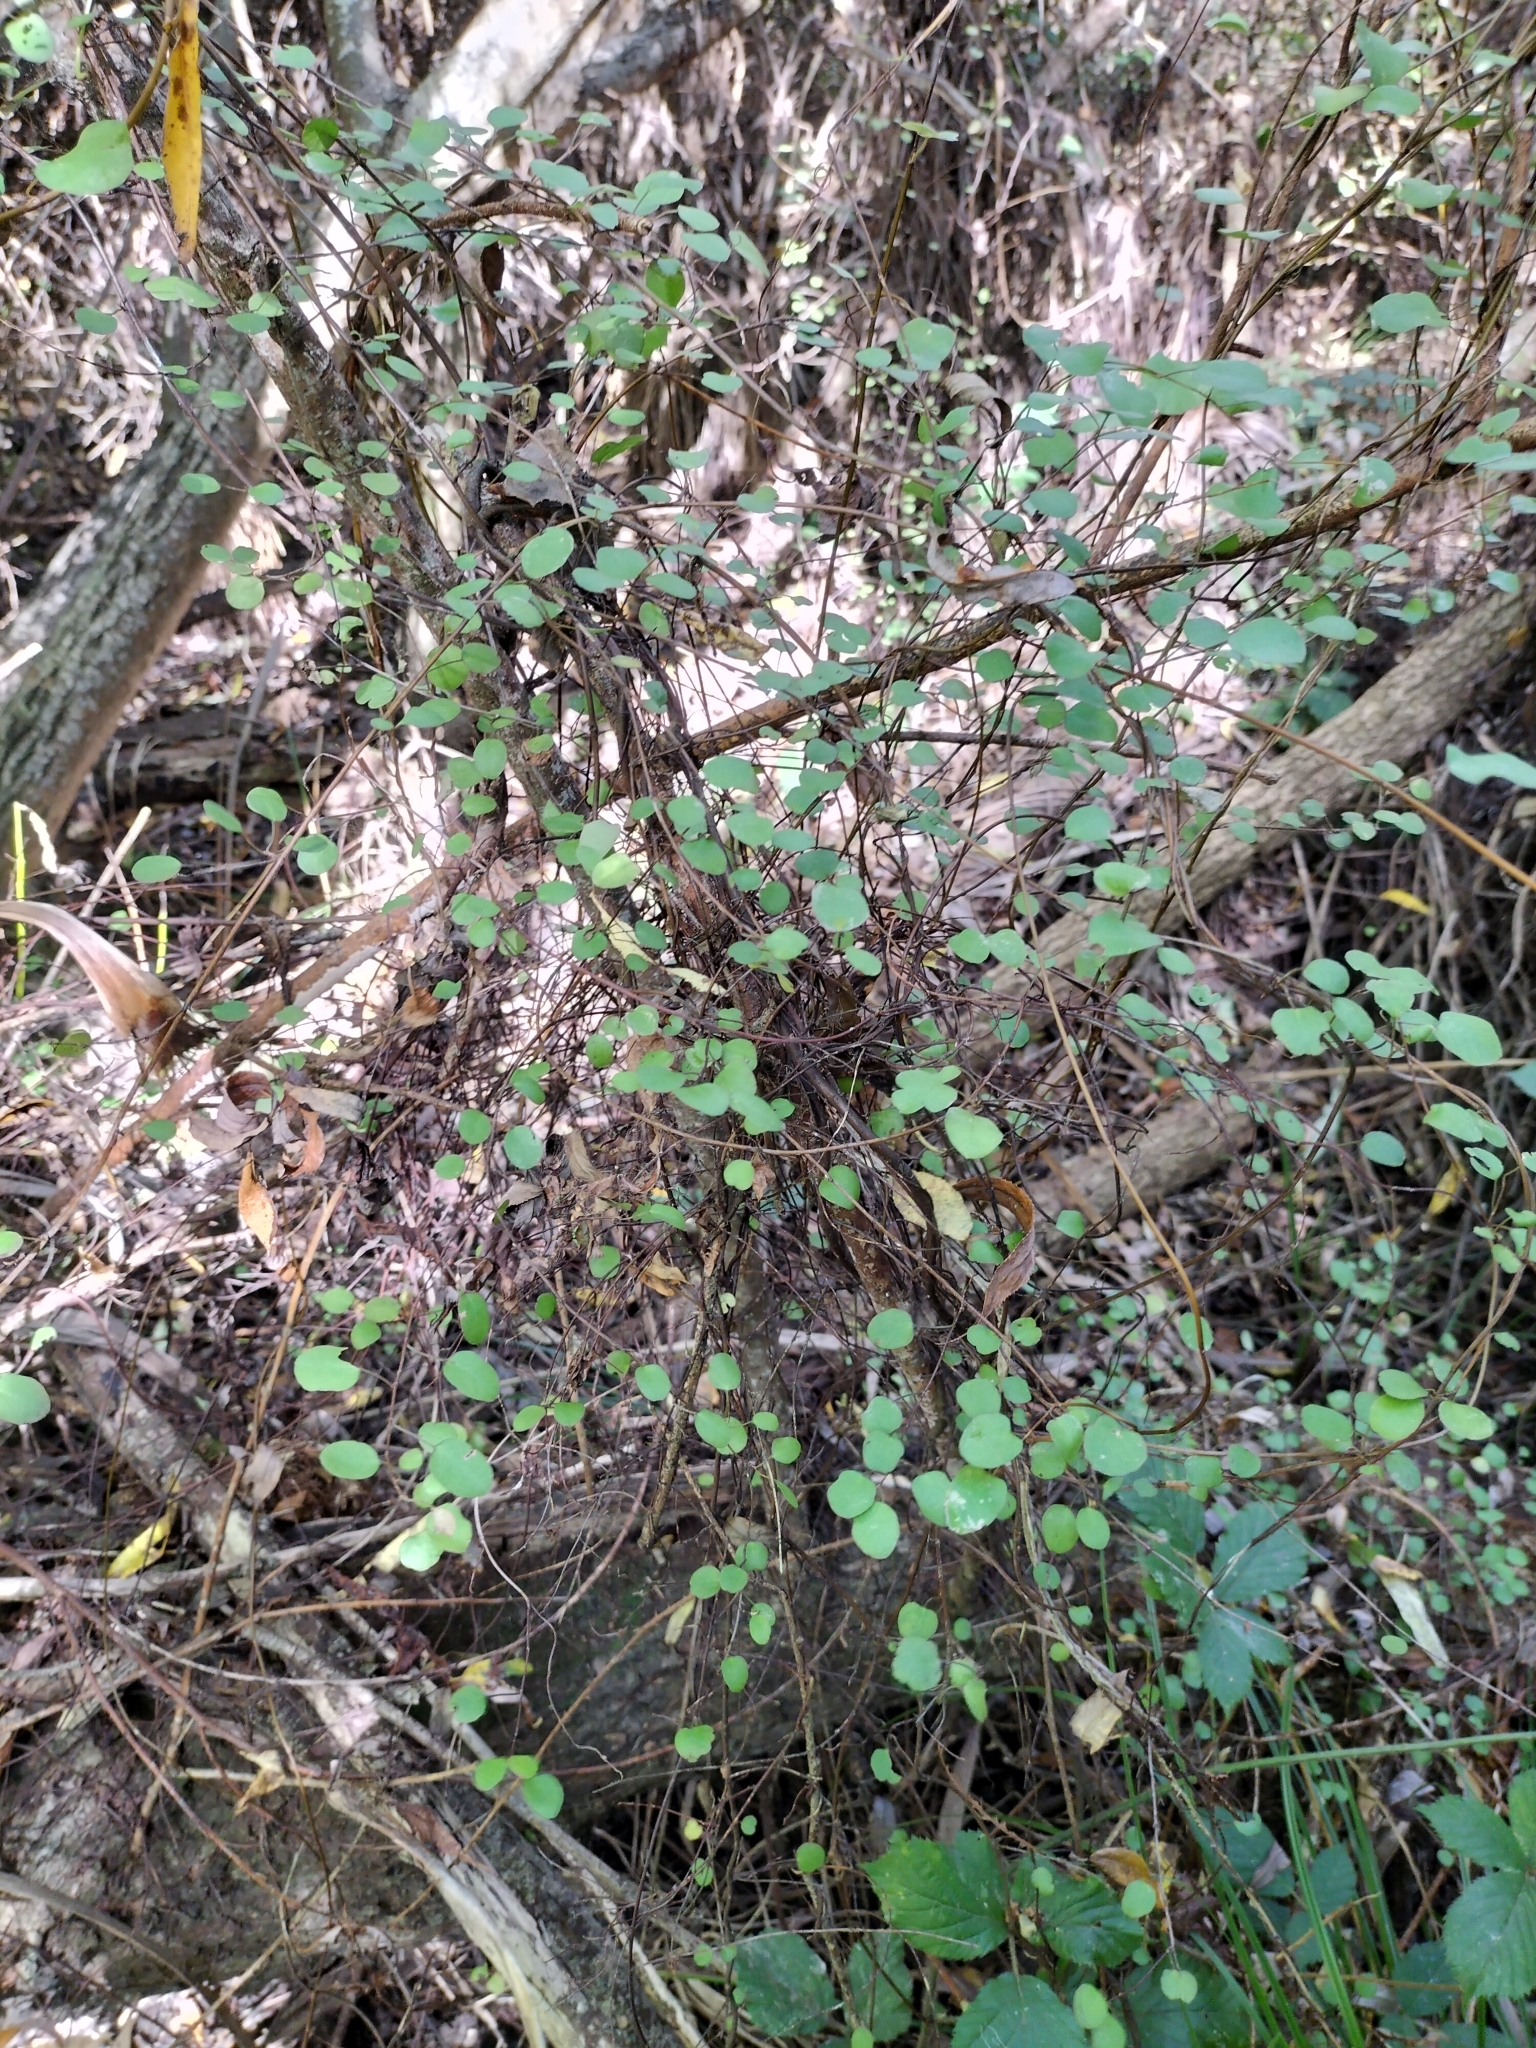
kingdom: Plantae
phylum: Tracheophyta
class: Magnoliopsida
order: Caryophyllales
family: Polygonaceae
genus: Muehlenbeckia
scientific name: Muehlenbeckia complexa
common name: Wireplant
